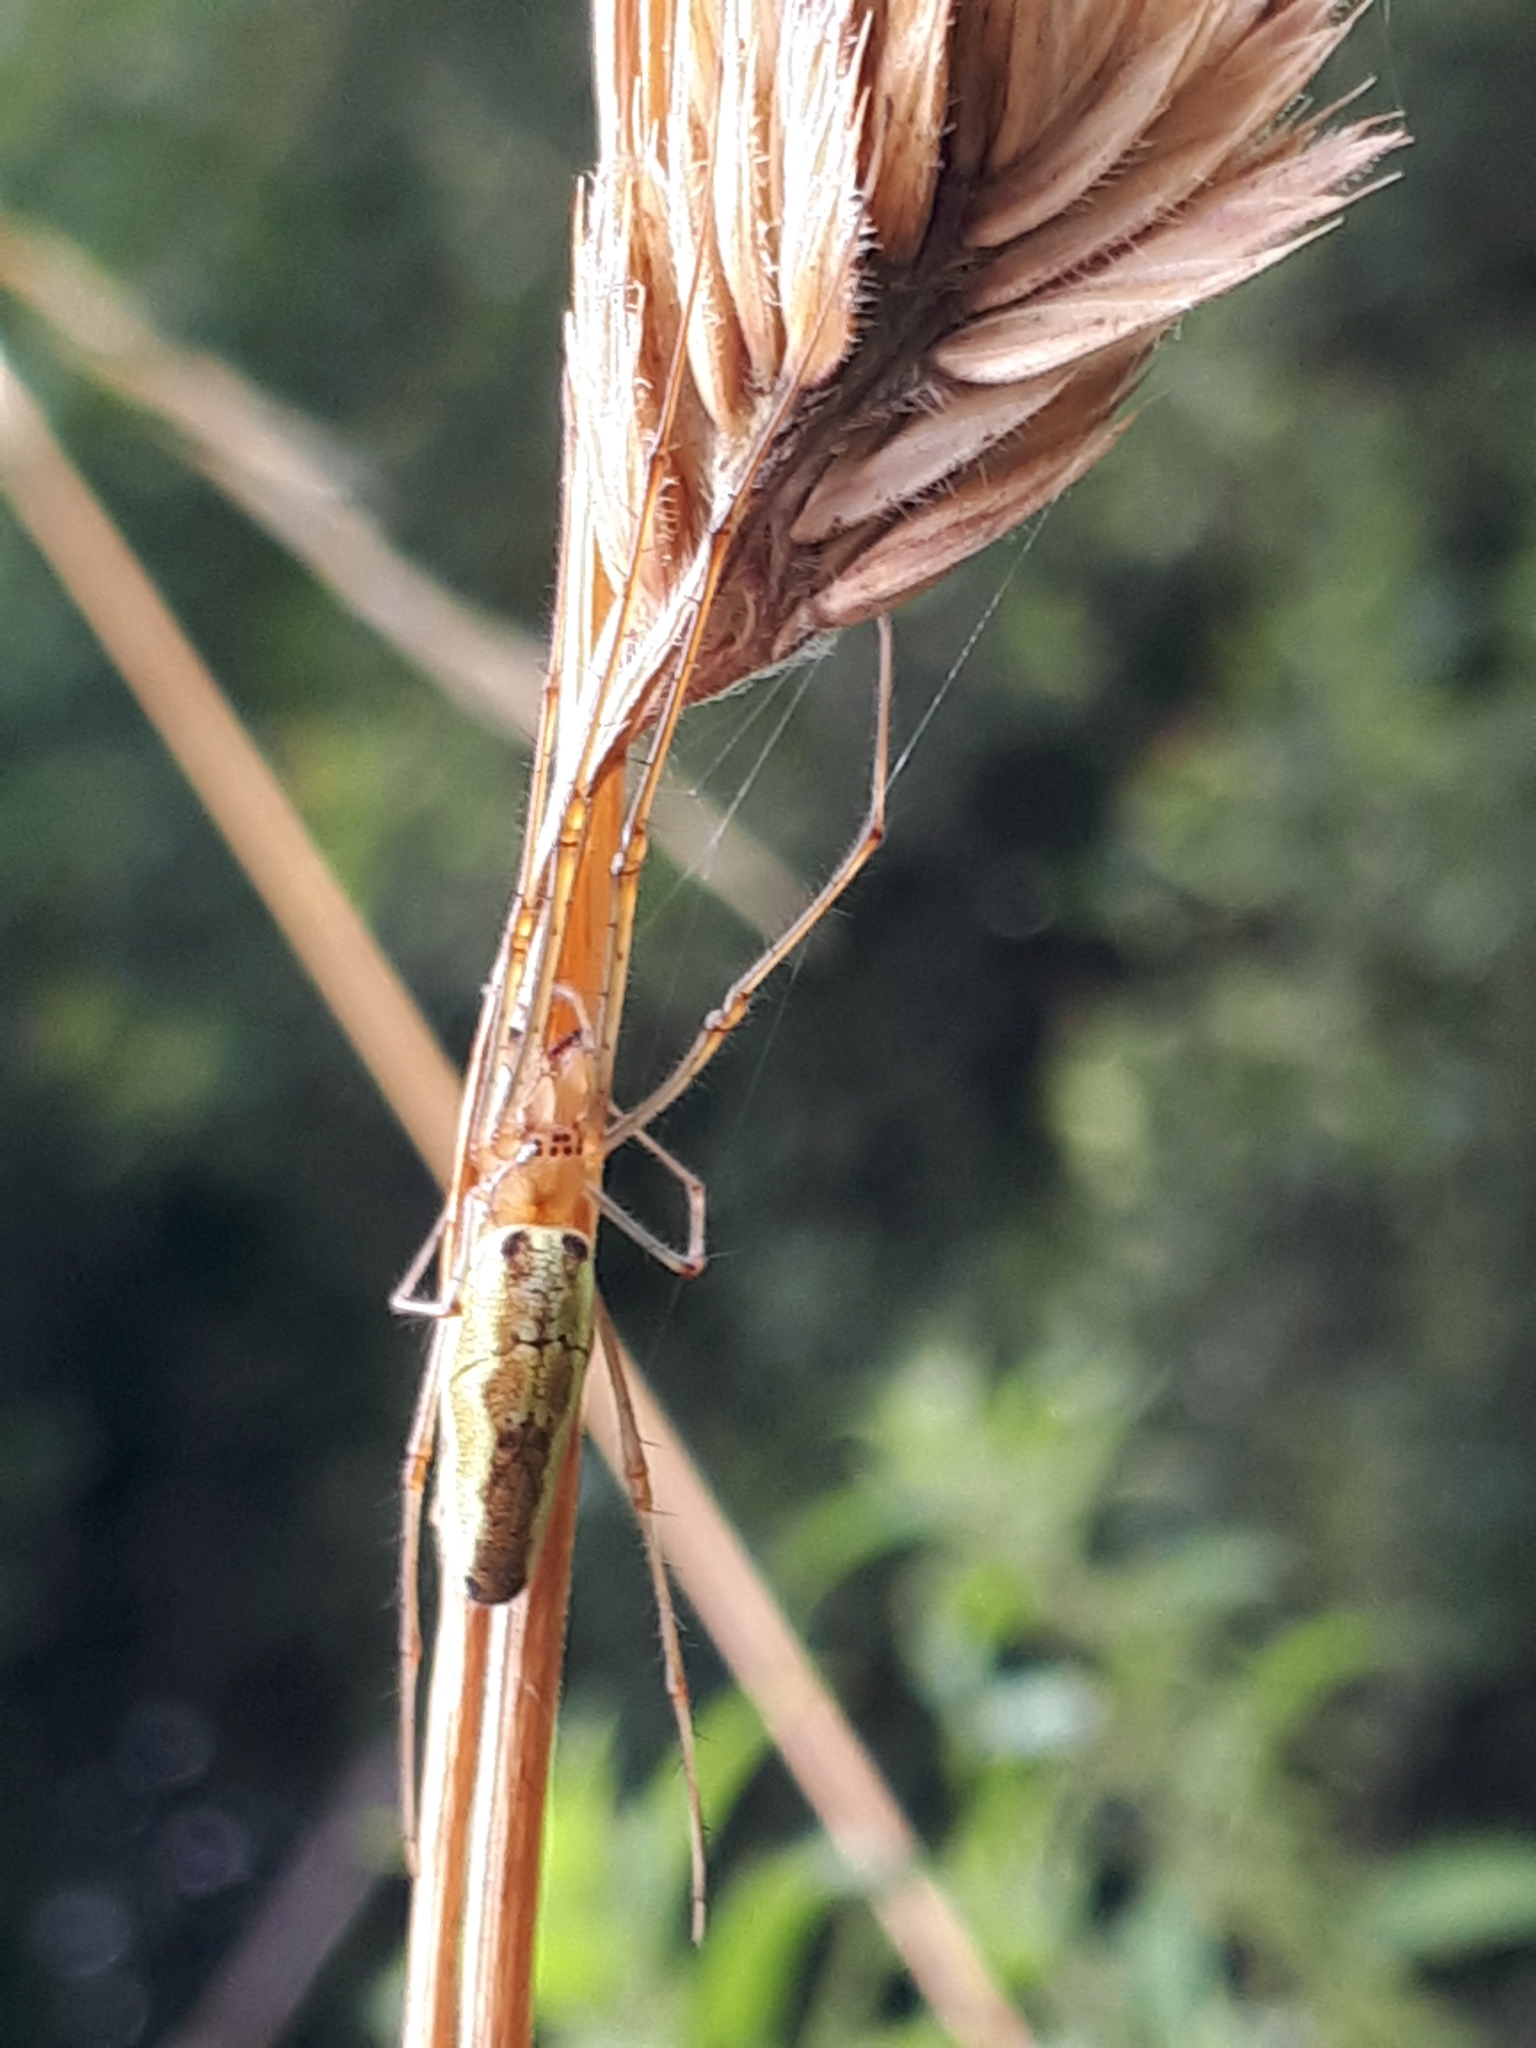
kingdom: Animalia
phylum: Arthropoda
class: Arachnida
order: Araneae
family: Tetragnathidae
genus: Tetragnatha
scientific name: Tetragnatha extensa
